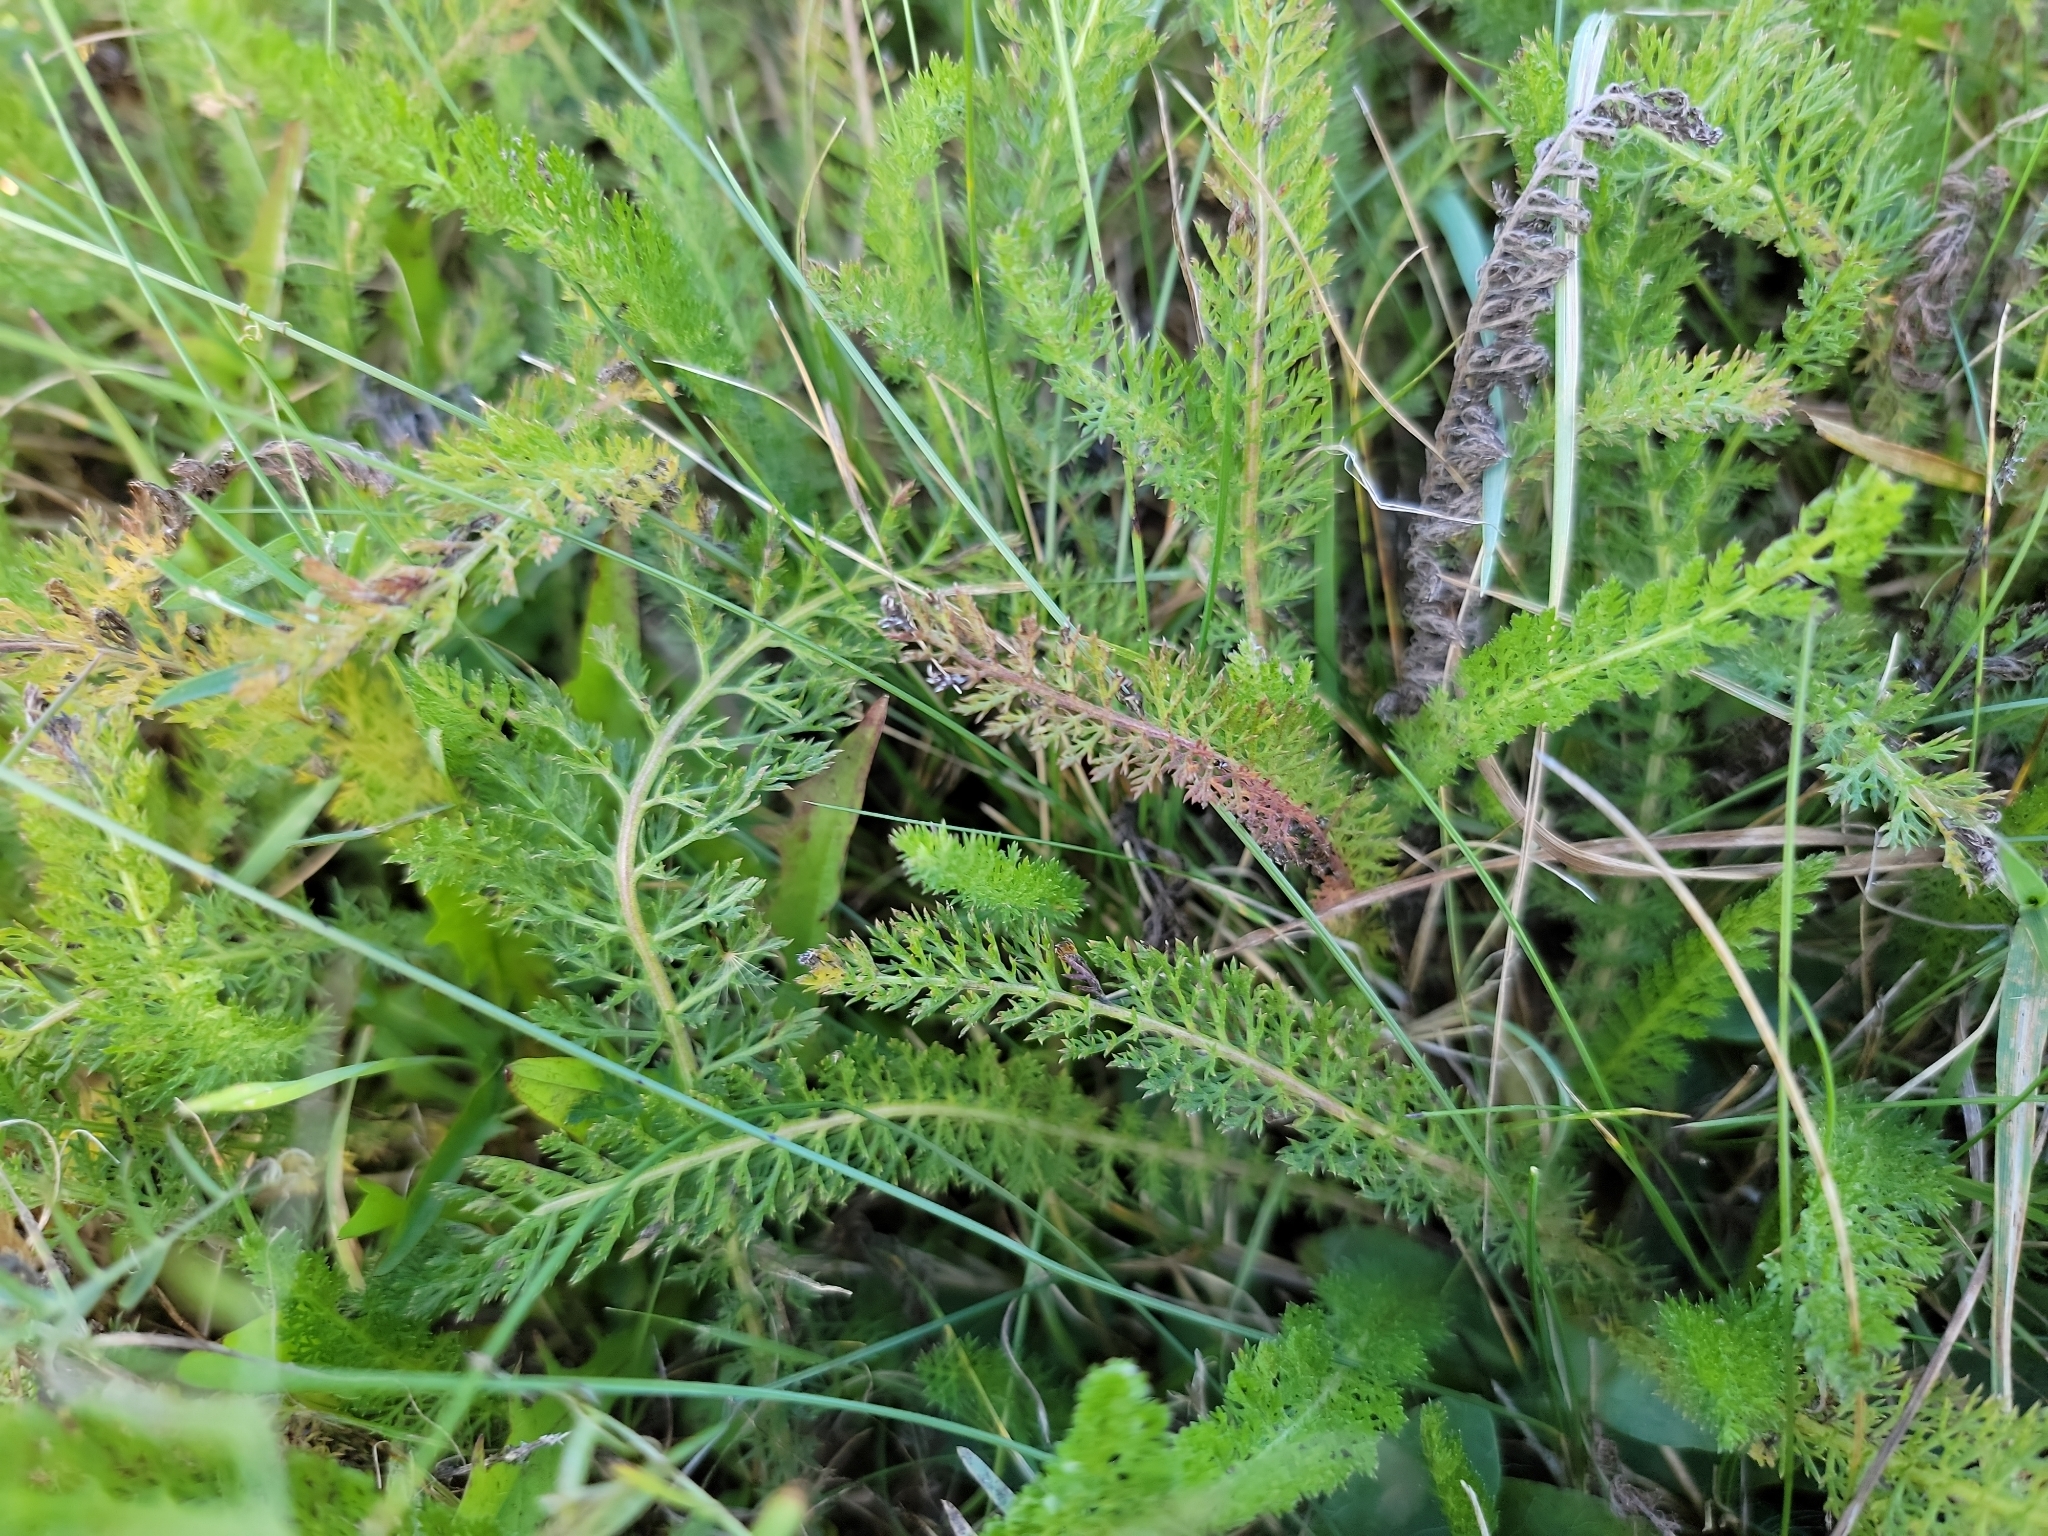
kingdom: Plantae
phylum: Tracheophyta
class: Magnoliopsida
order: Asterales
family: Asteraceae
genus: Achillea
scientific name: Achillea millefolium
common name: Yarrow
